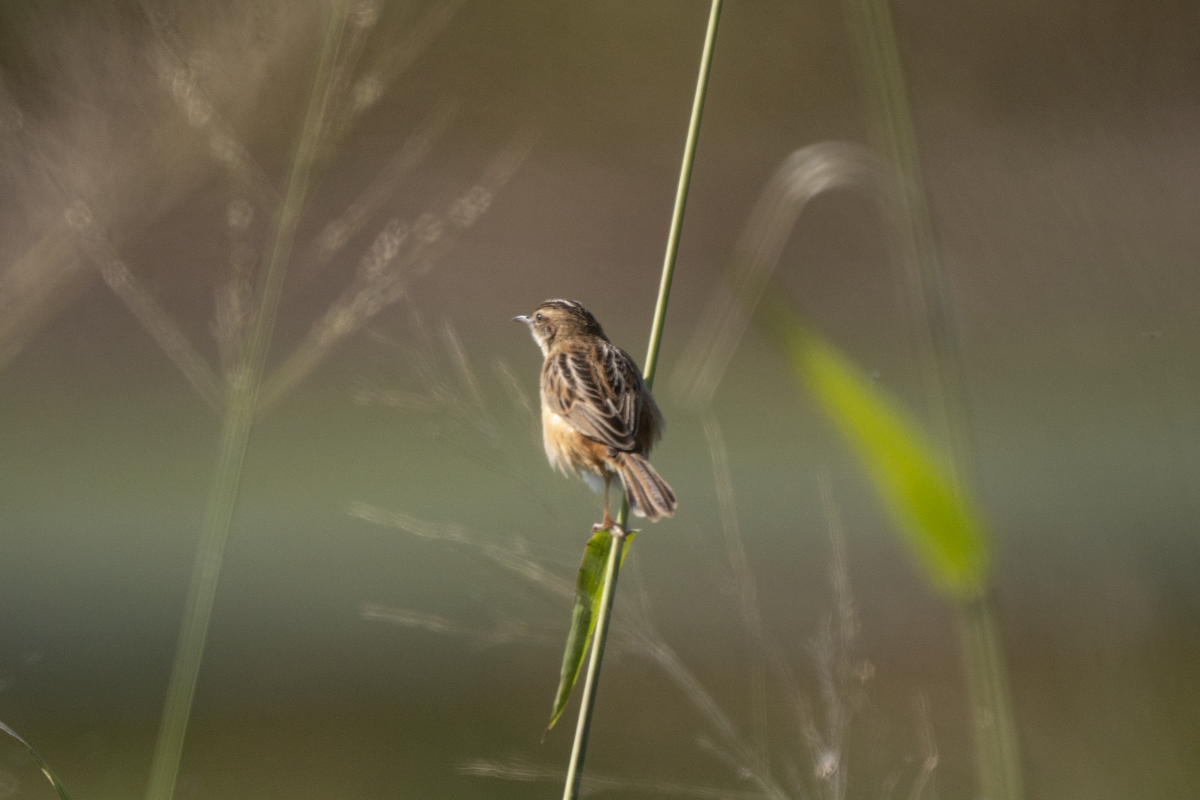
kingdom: Animalia
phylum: Chordata
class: Aves
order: Passeriformes
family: Cisticolidae
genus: Cisticola
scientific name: Cisticola juncidis
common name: Zitting cisticola
